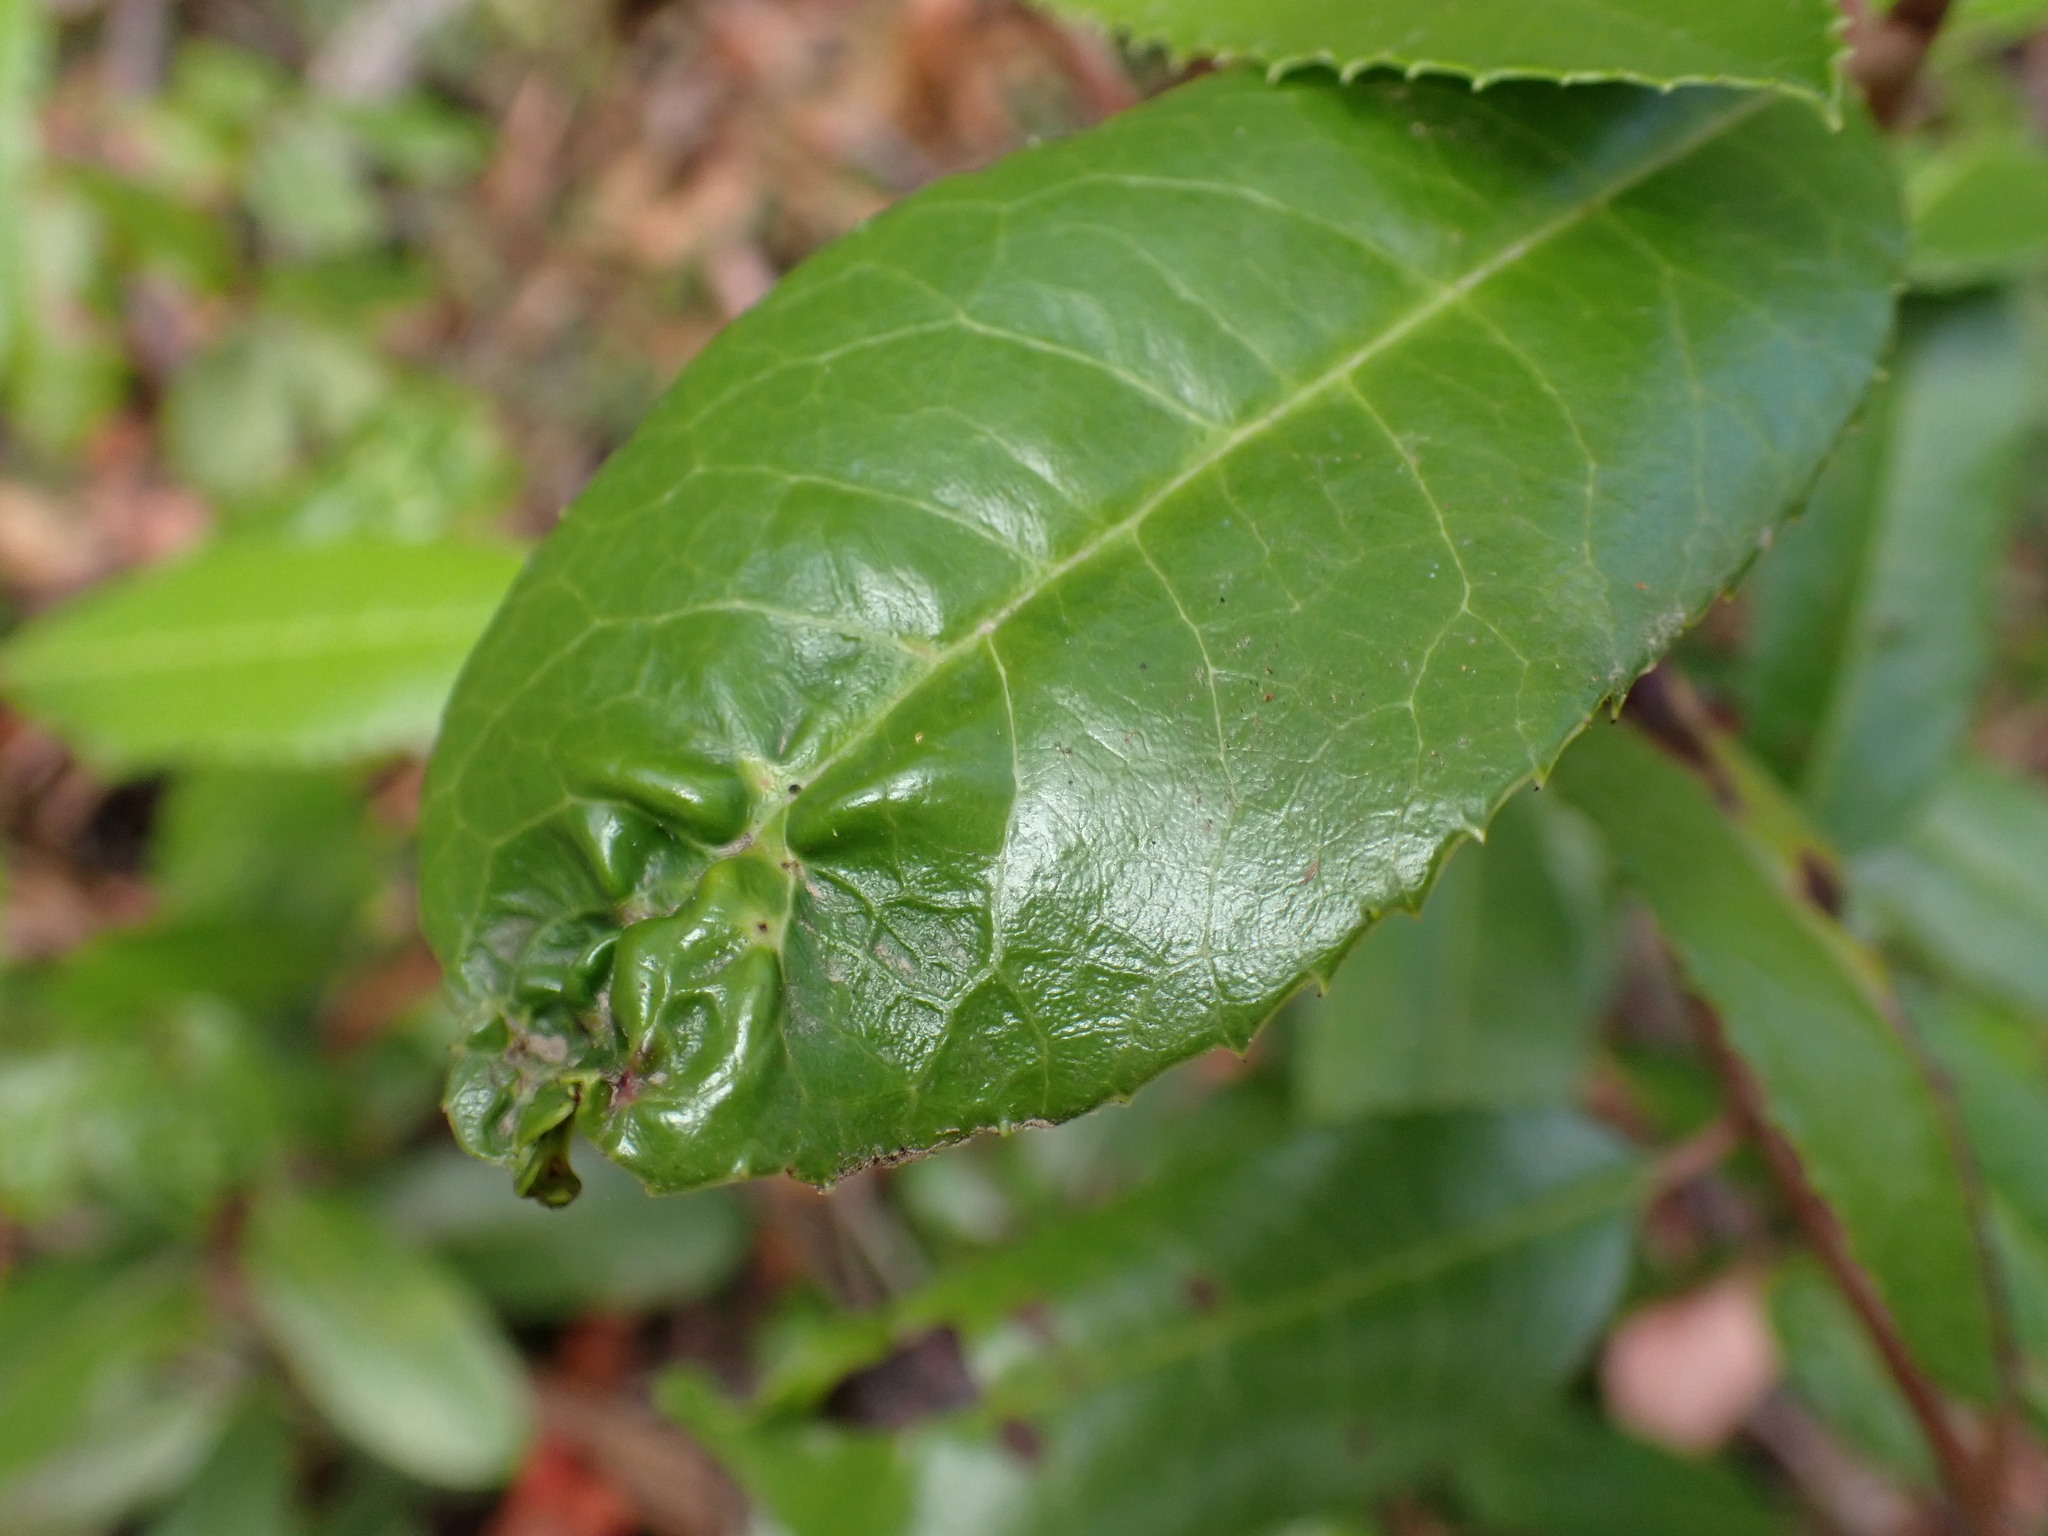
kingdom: Animalia
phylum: Arthropoda
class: Insecta
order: Thysanoptera
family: Phlaeothripidae
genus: Liothrips
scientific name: Liothrips ilex
